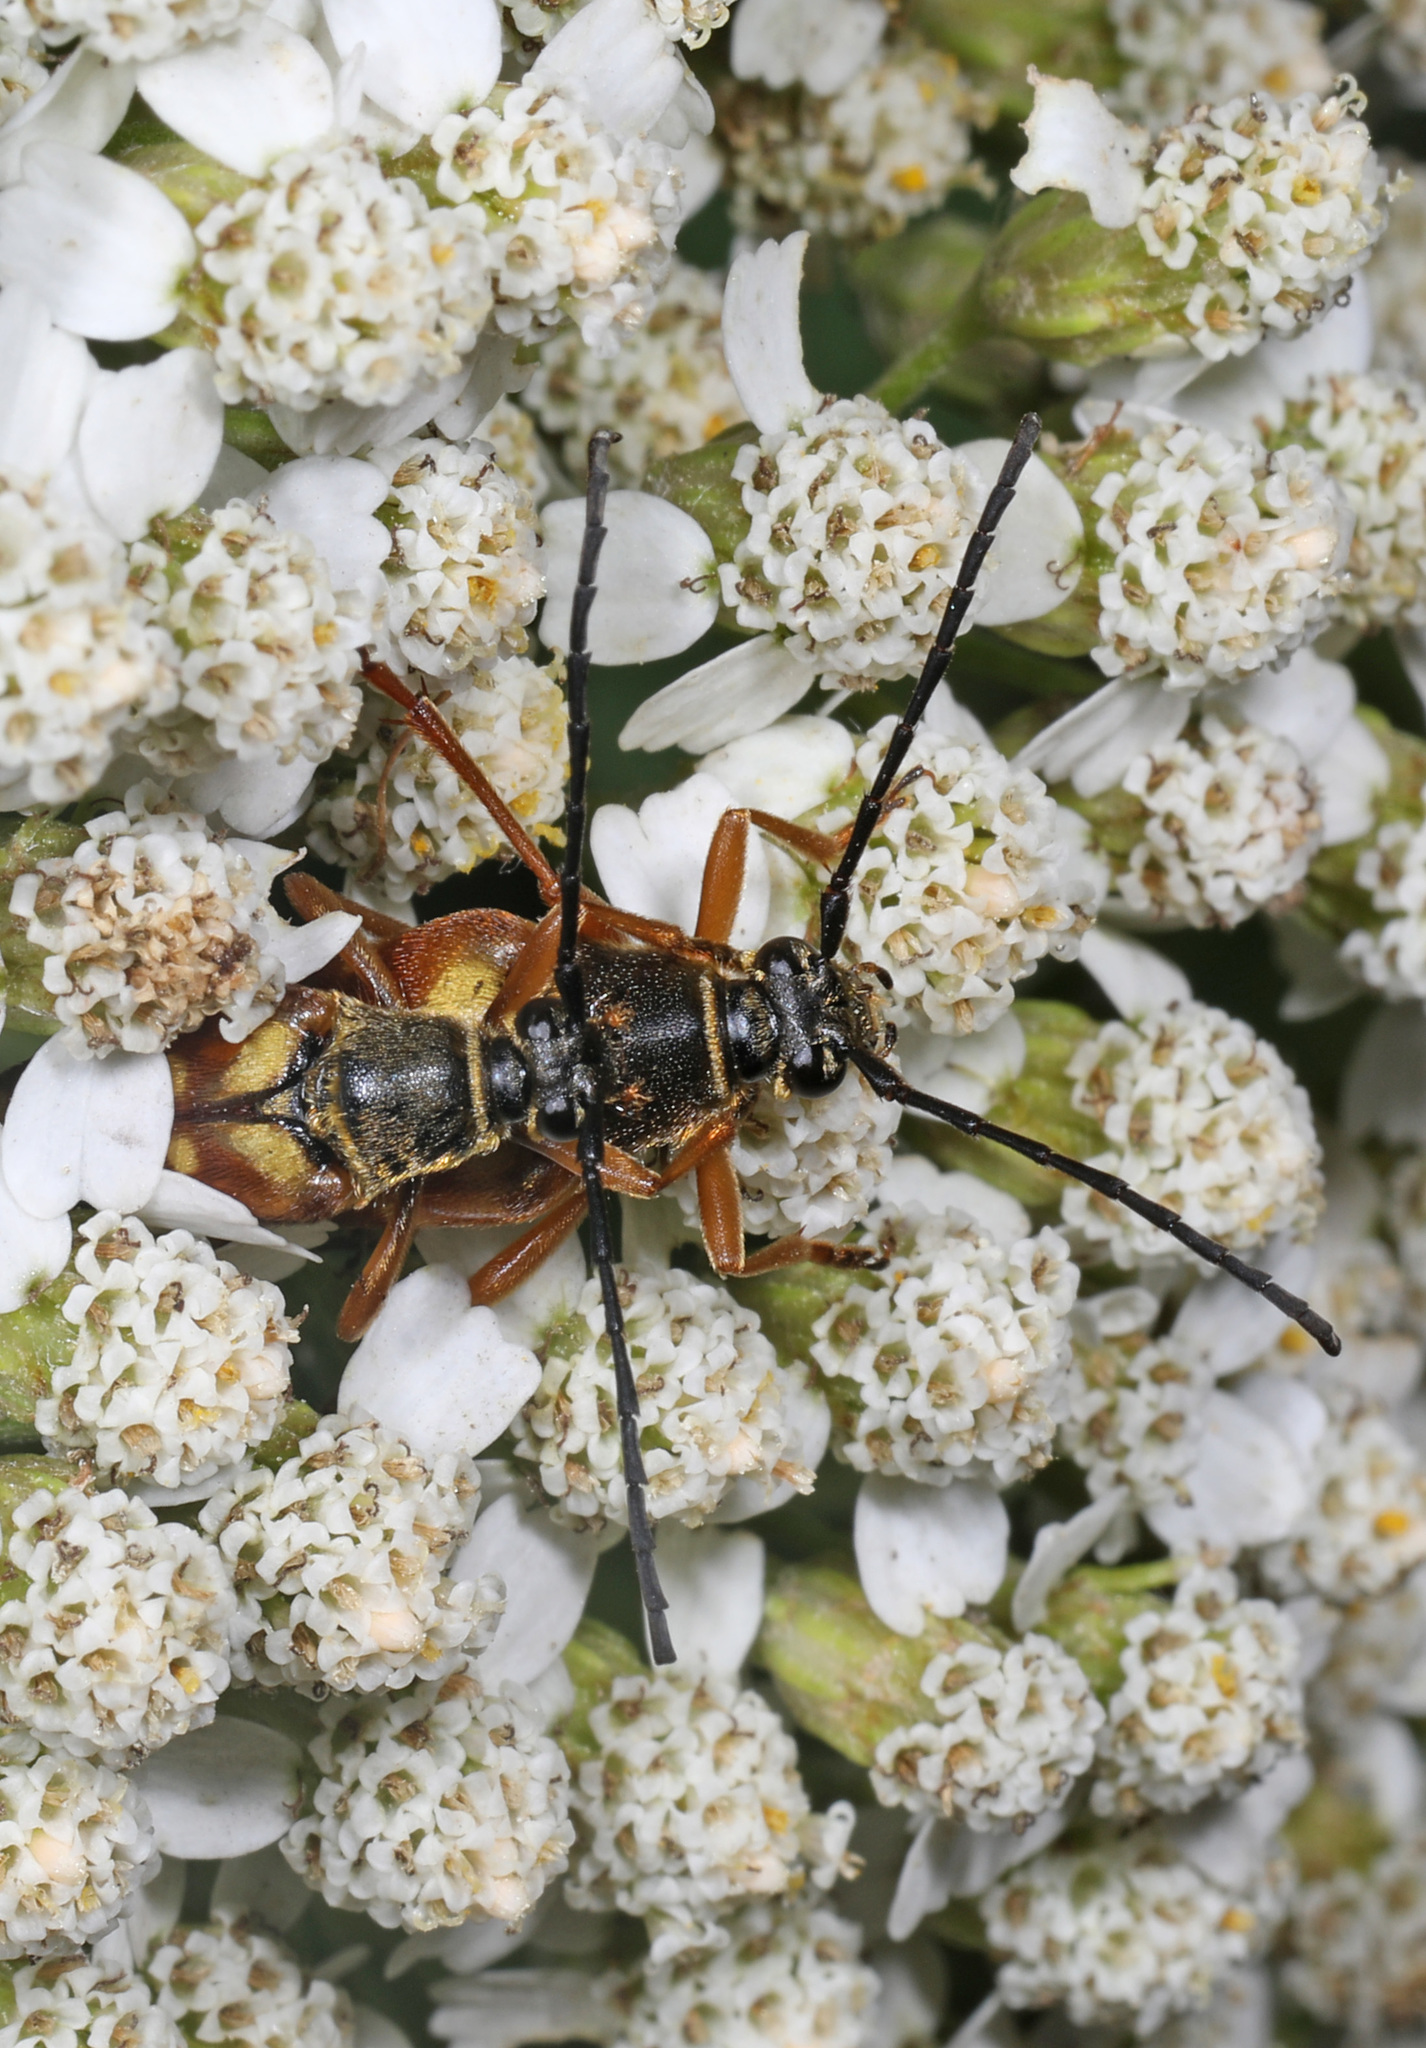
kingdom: Animalia
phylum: Arthropoda
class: Insecta
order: Coleoptera
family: Cerambycidae
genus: Typocerus
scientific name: Typocerus velutinus
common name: Banded longhorn beetle
